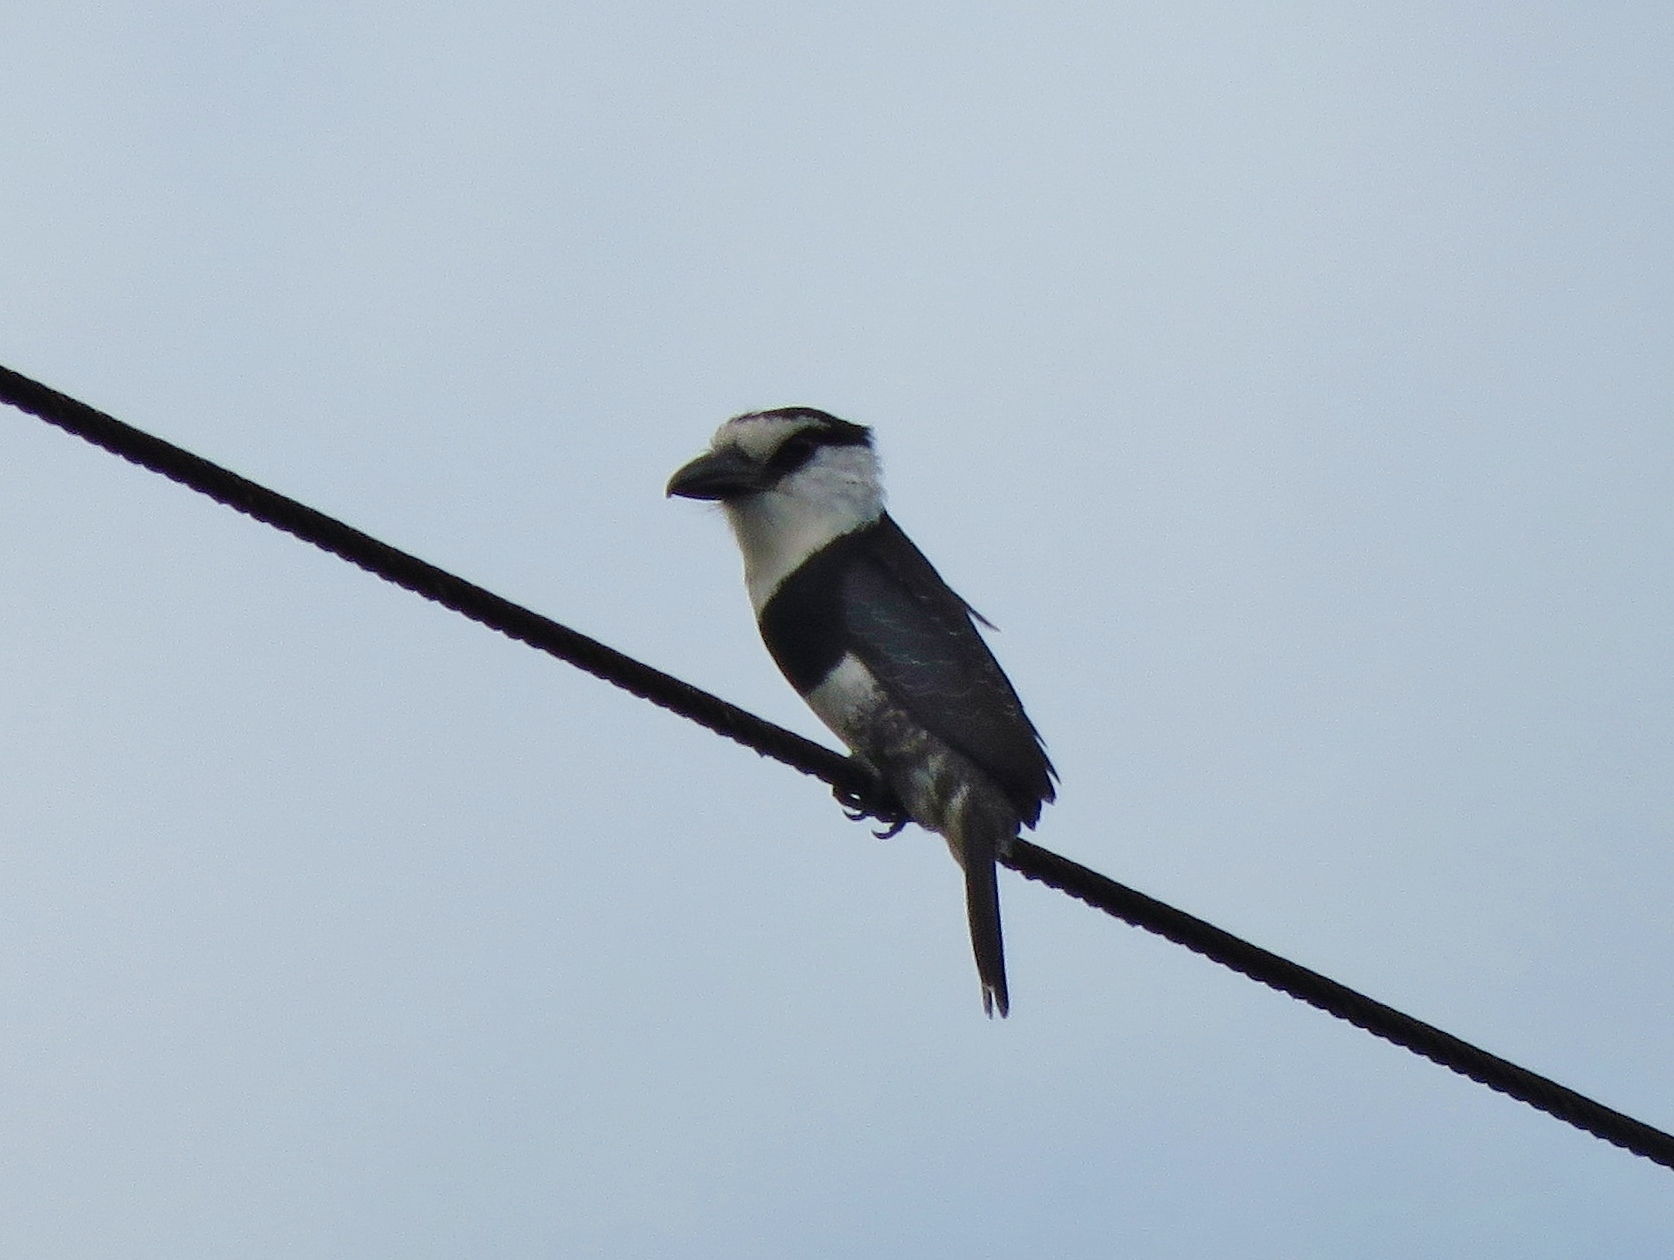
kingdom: Animalia
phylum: Chordata
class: Aves
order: Piciformes
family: Bucconidae
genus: Notharchus
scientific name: Notharchus hyperrhynchus
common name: White-necked puffbird
